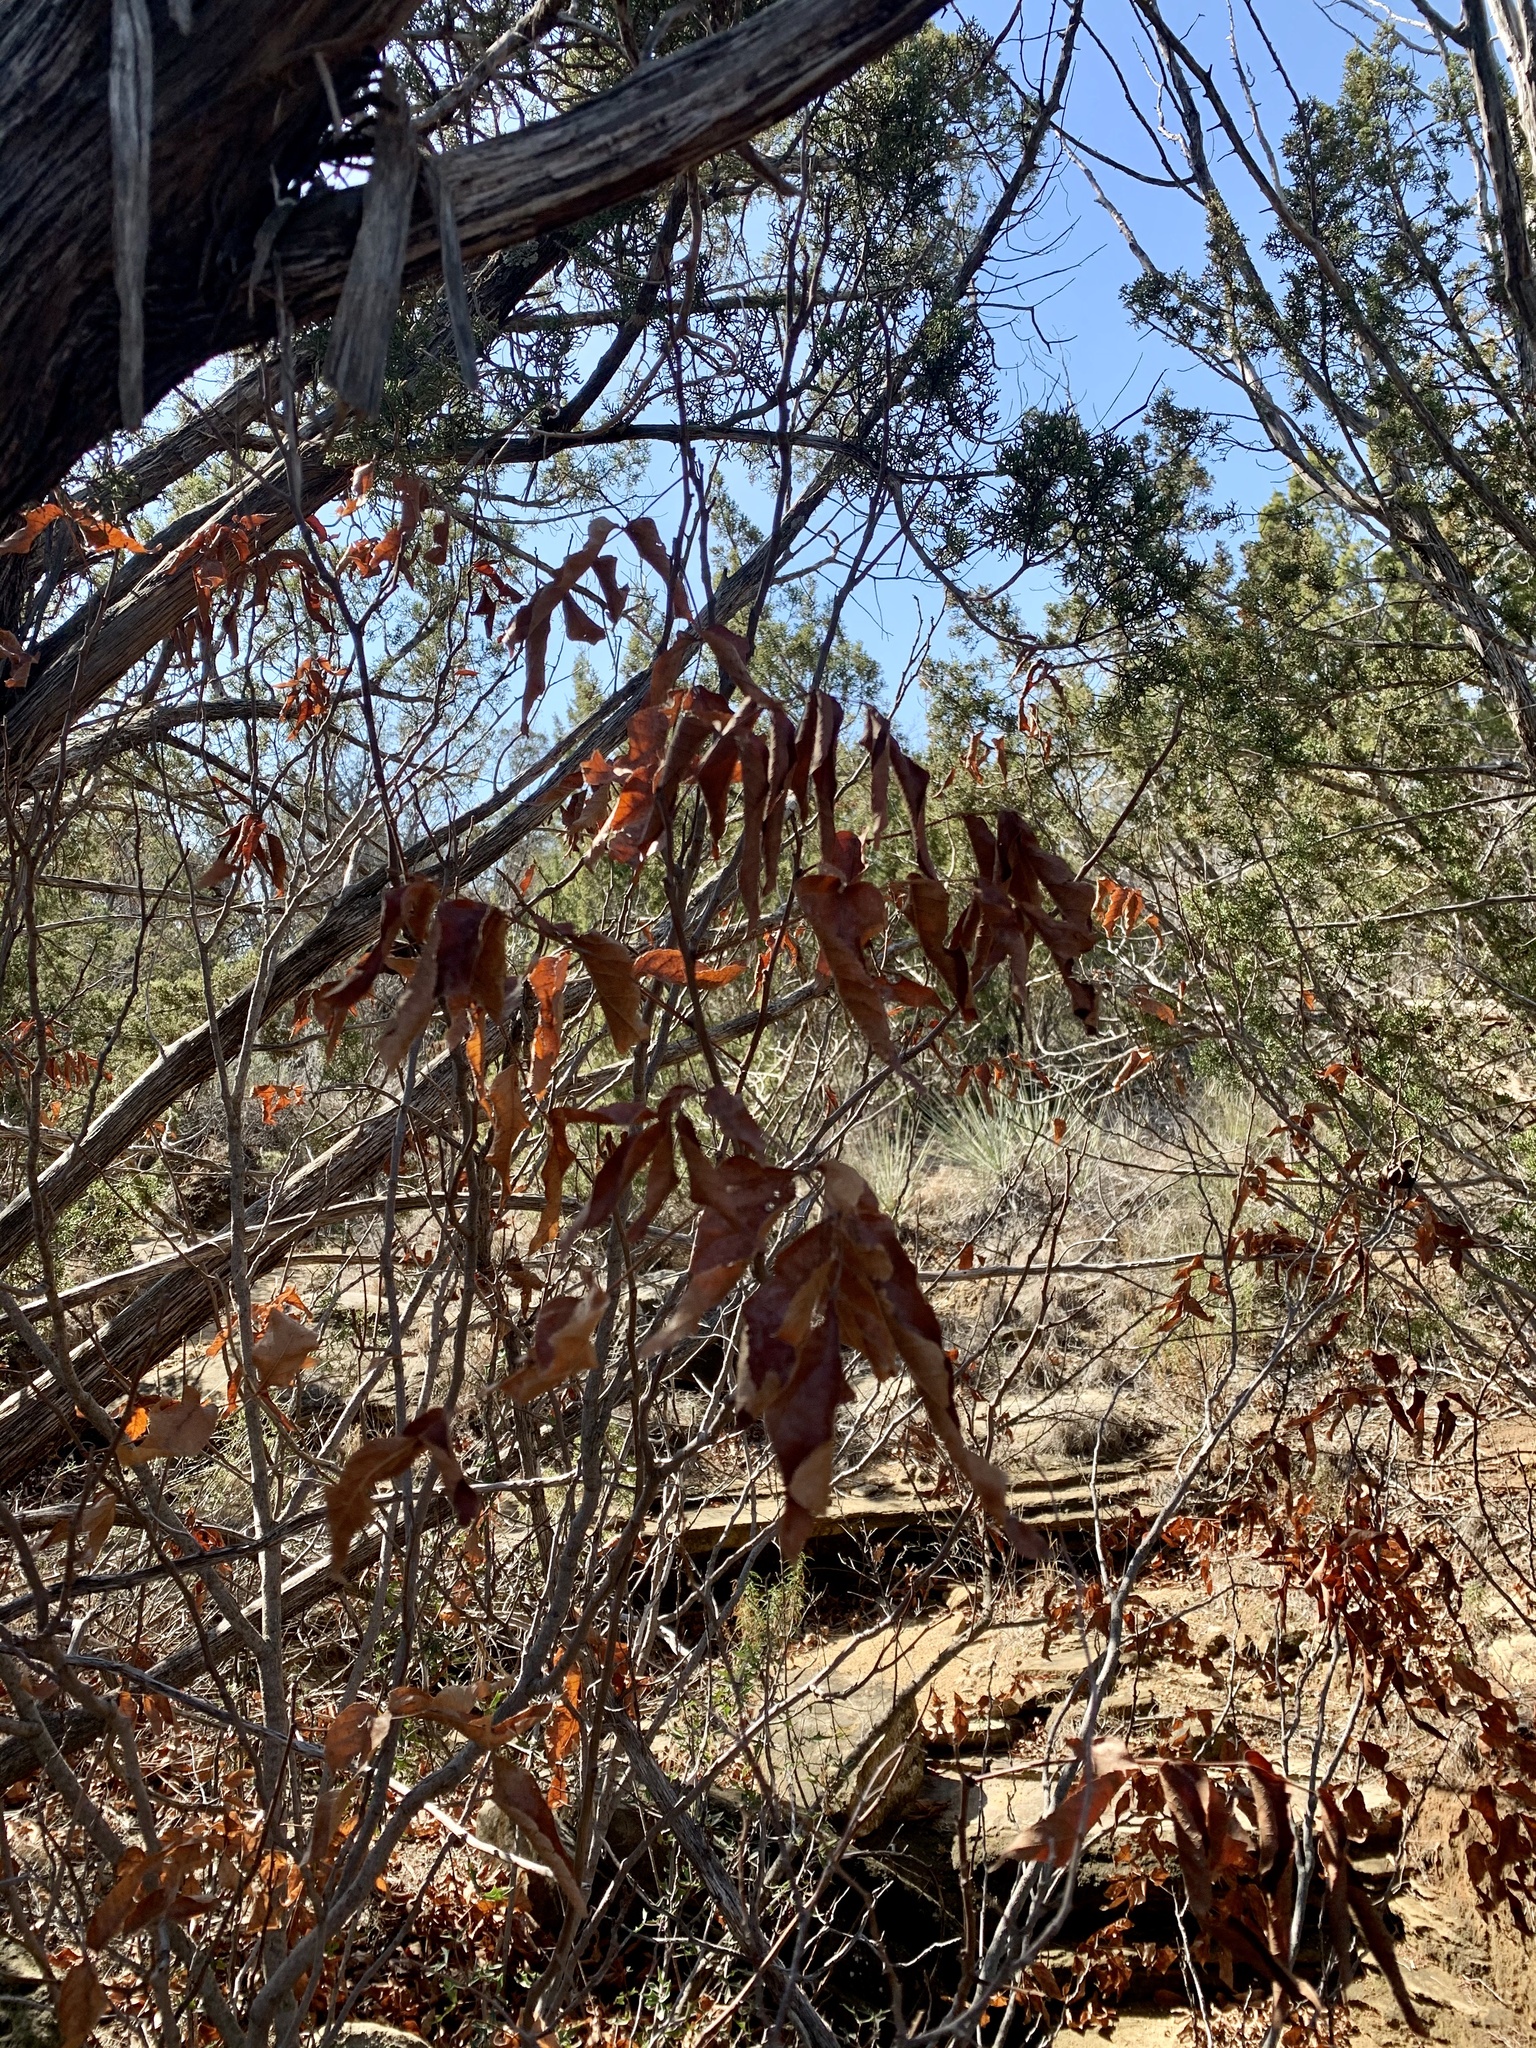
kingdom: Plantae
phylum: Tracheophyta
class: Magnoliopsida
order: Sapindales
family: Sapindaceae
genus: Ungnadia
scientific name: Ungnadia speciosa
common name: Texas-buckeye
